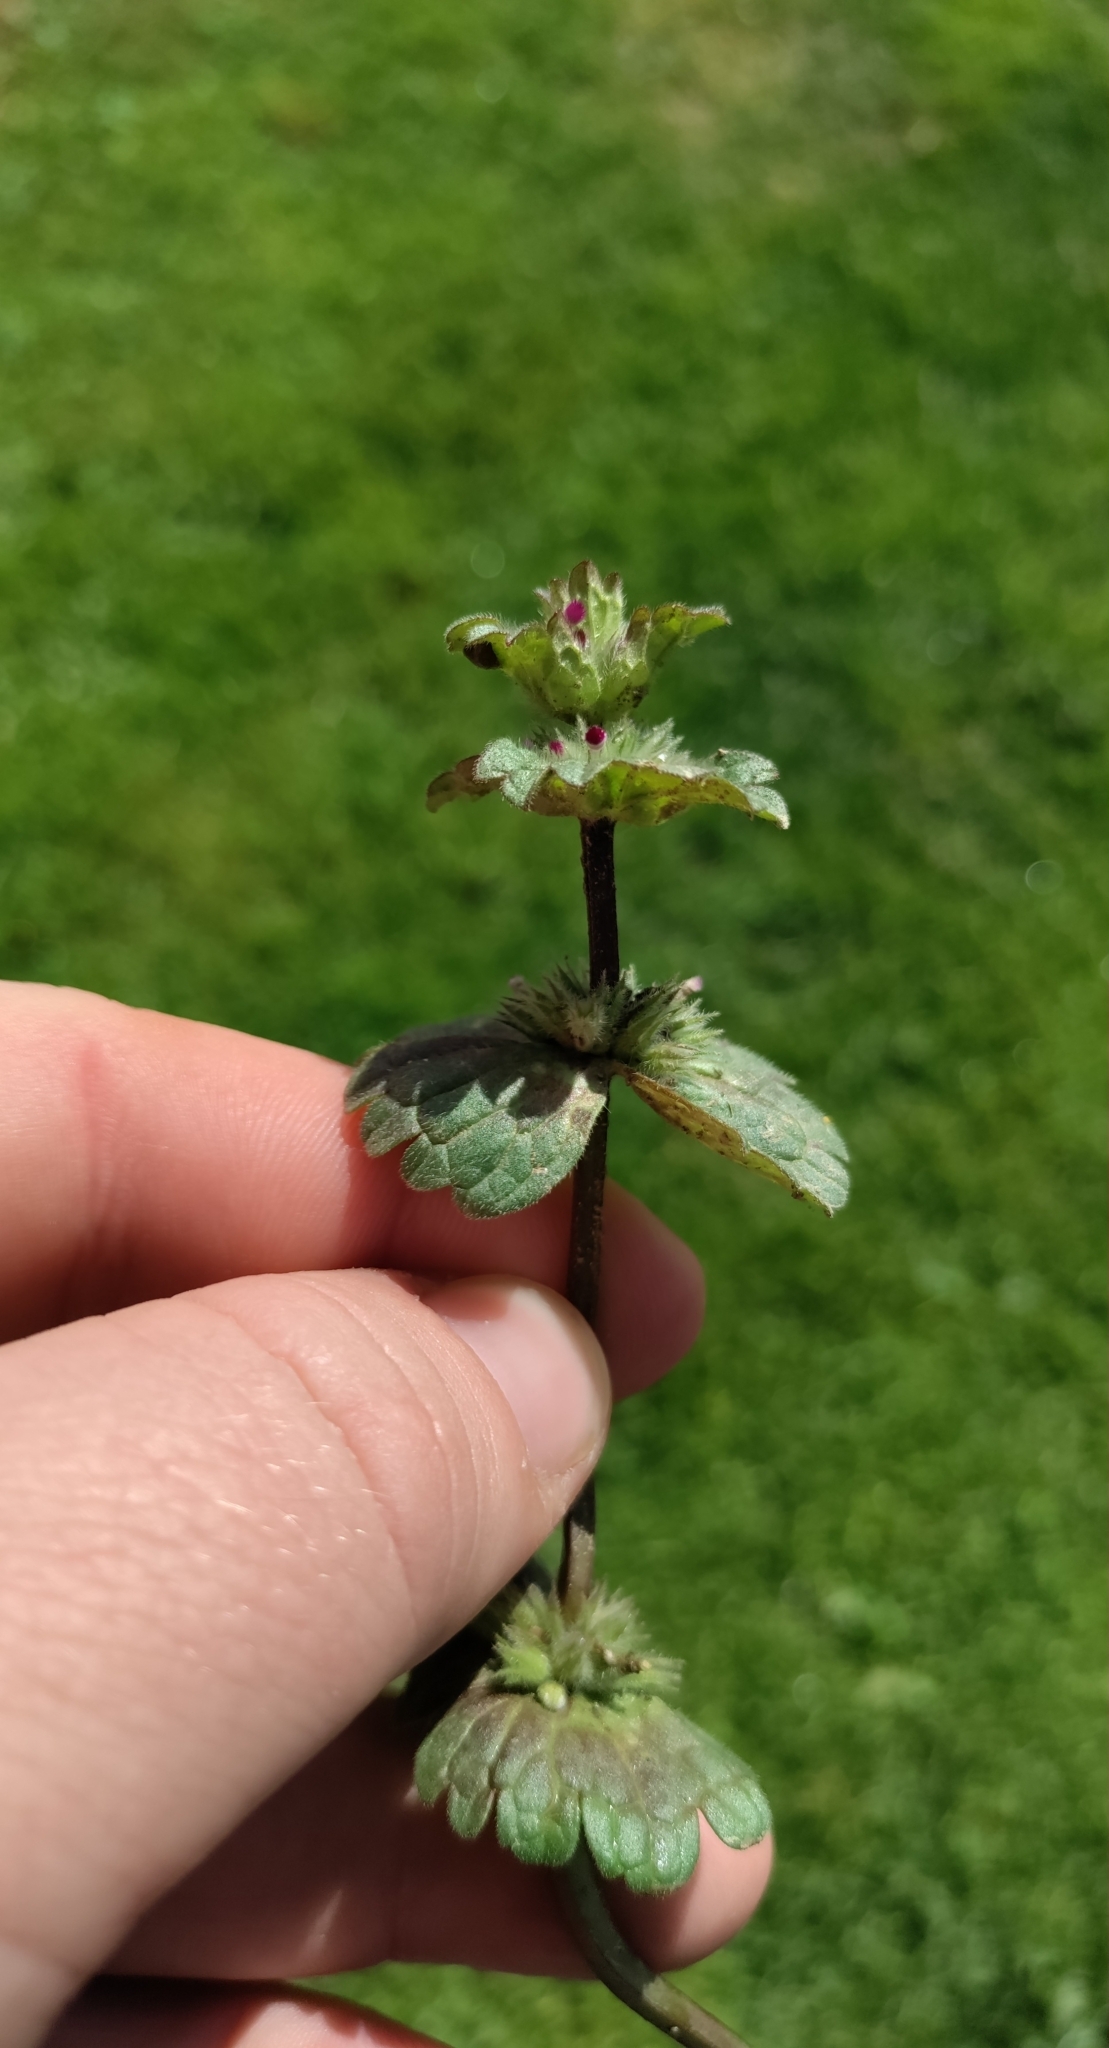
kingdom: Plantae
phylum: Tracheophyta
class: Magnoliopsida
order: Lamiales
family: Lamiaceae
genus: Lamium
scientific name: Lamium amplexicaule
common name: Henbit dead-nettle
